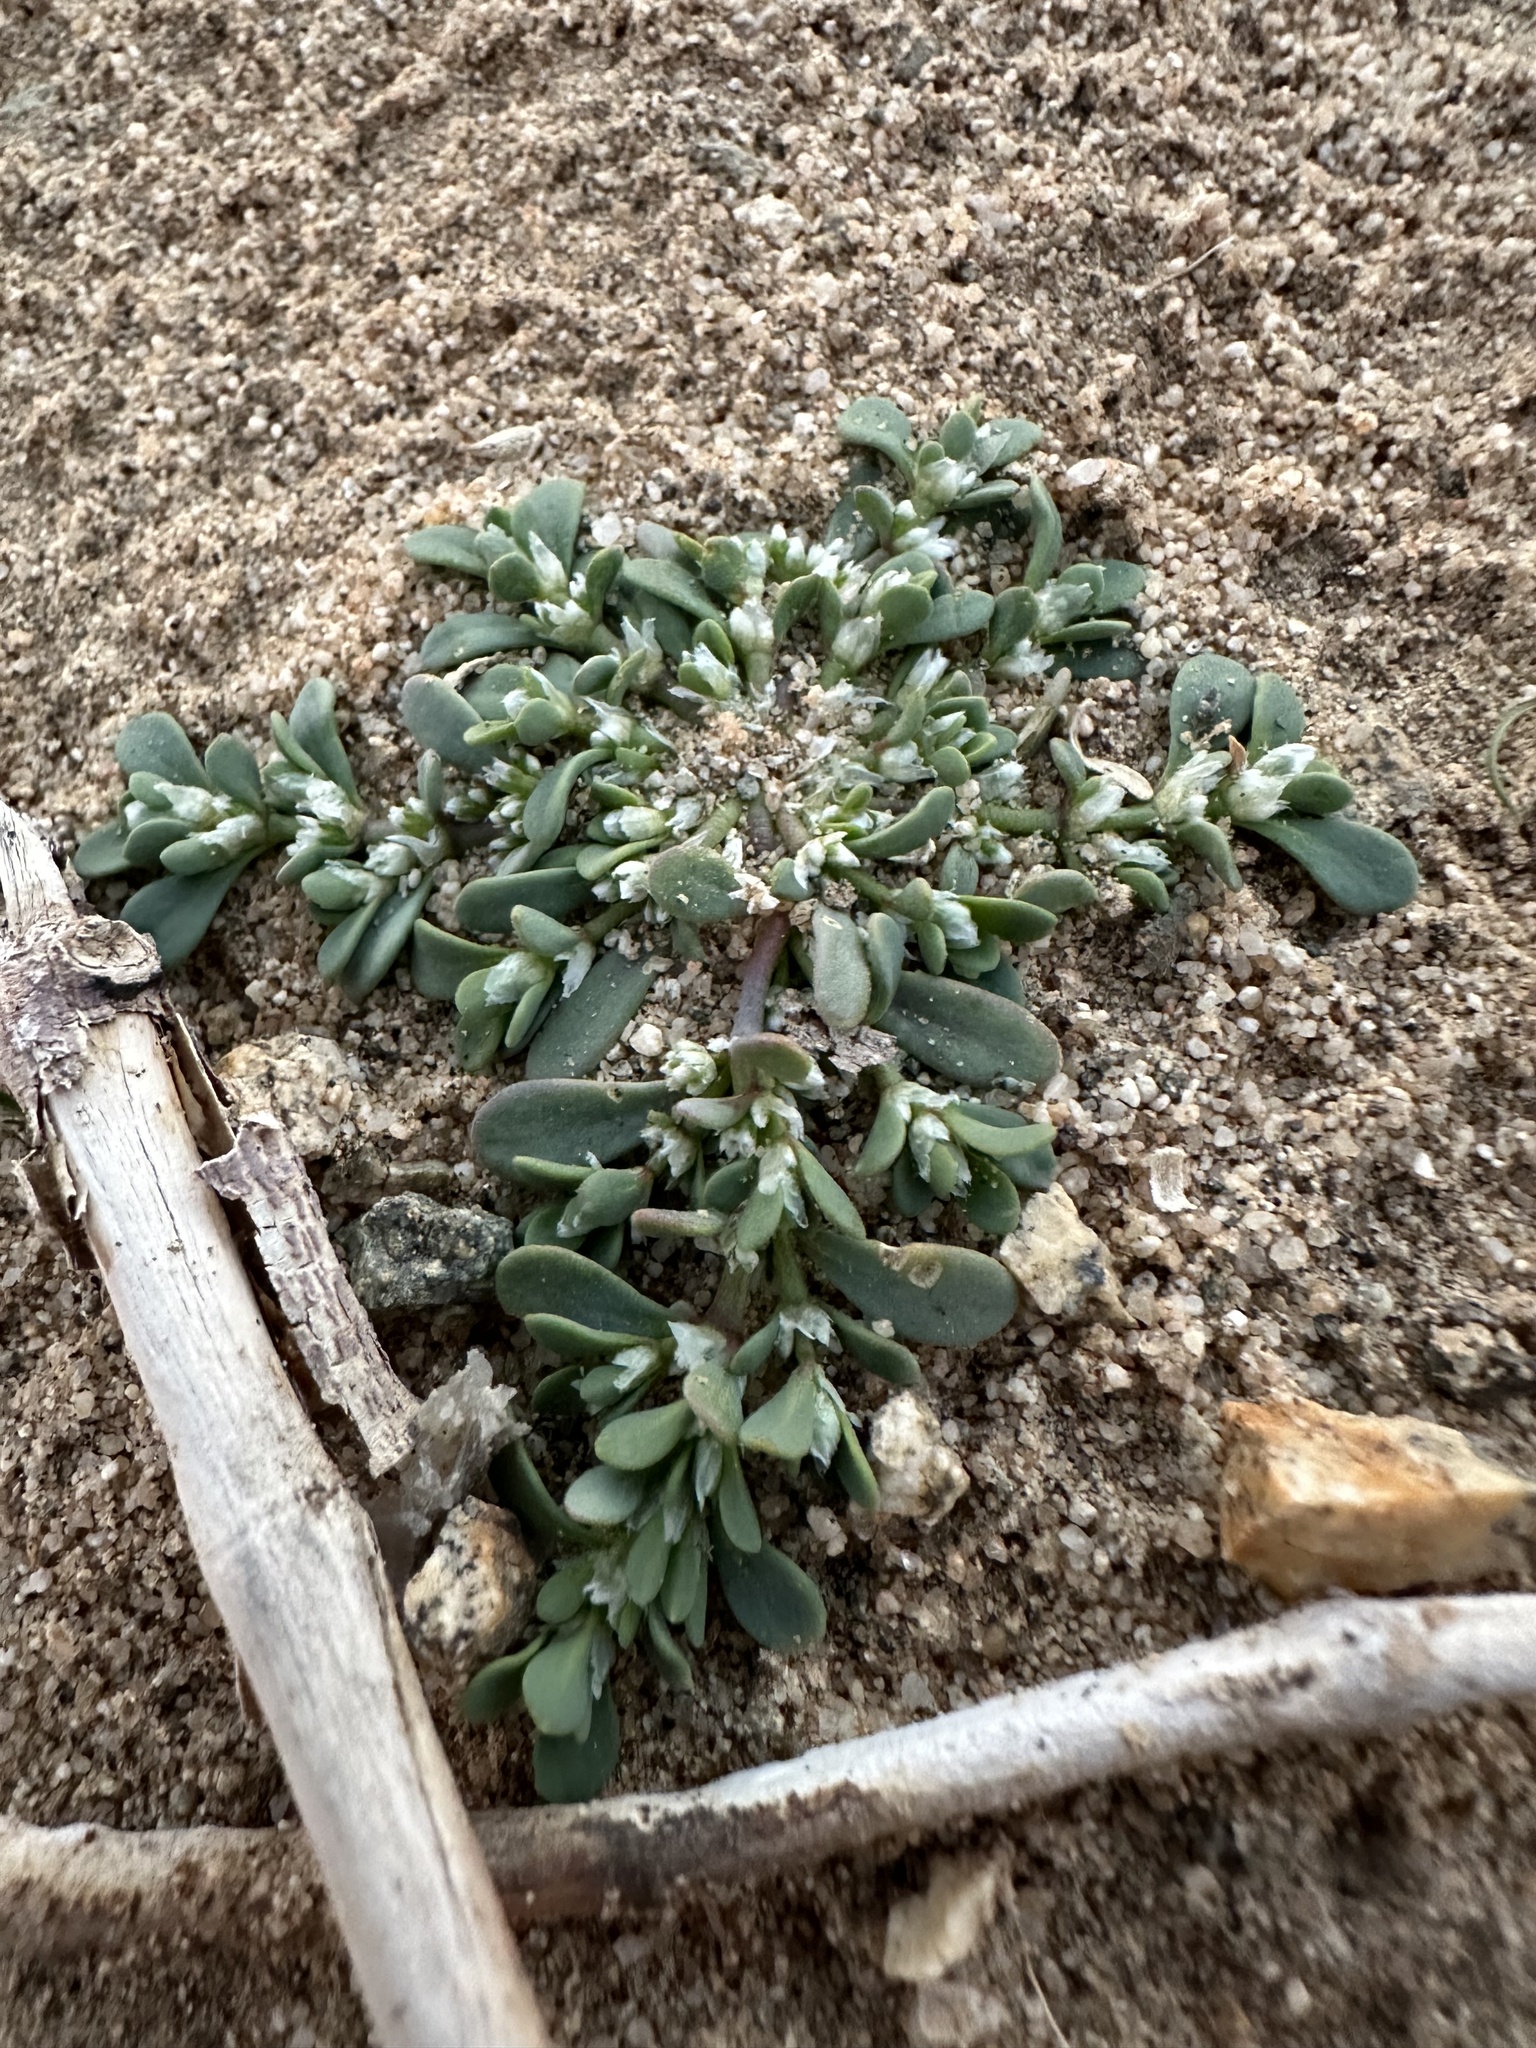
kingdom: Plantae
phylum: Tracheophyta
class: Magnoliopsida
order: Caryophyllales
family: Caryophyllaceae
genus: Achyronychia
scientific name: Achyronychia cooperi
